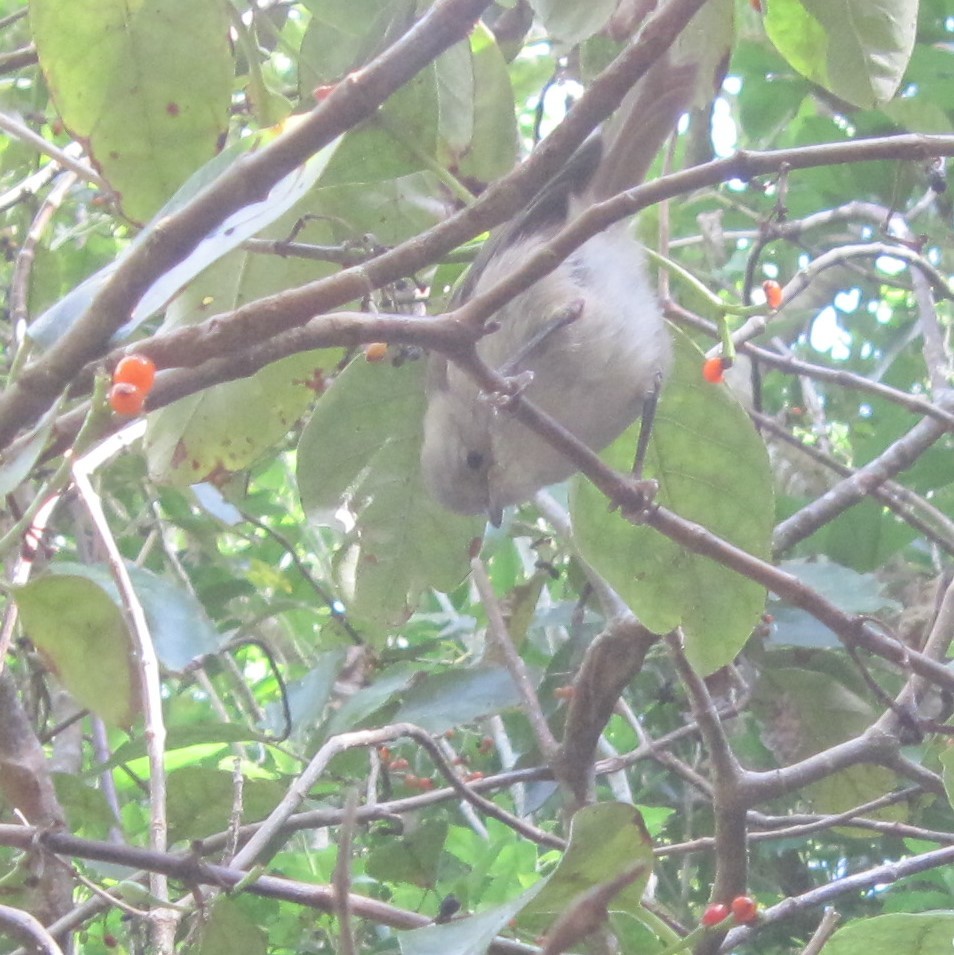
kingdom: Animalia
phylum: Chordata
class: Aves
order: Passeriformes
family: Acanthizidae
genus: Mohoua
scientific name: Mohoua albicilla
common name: Whitehead
